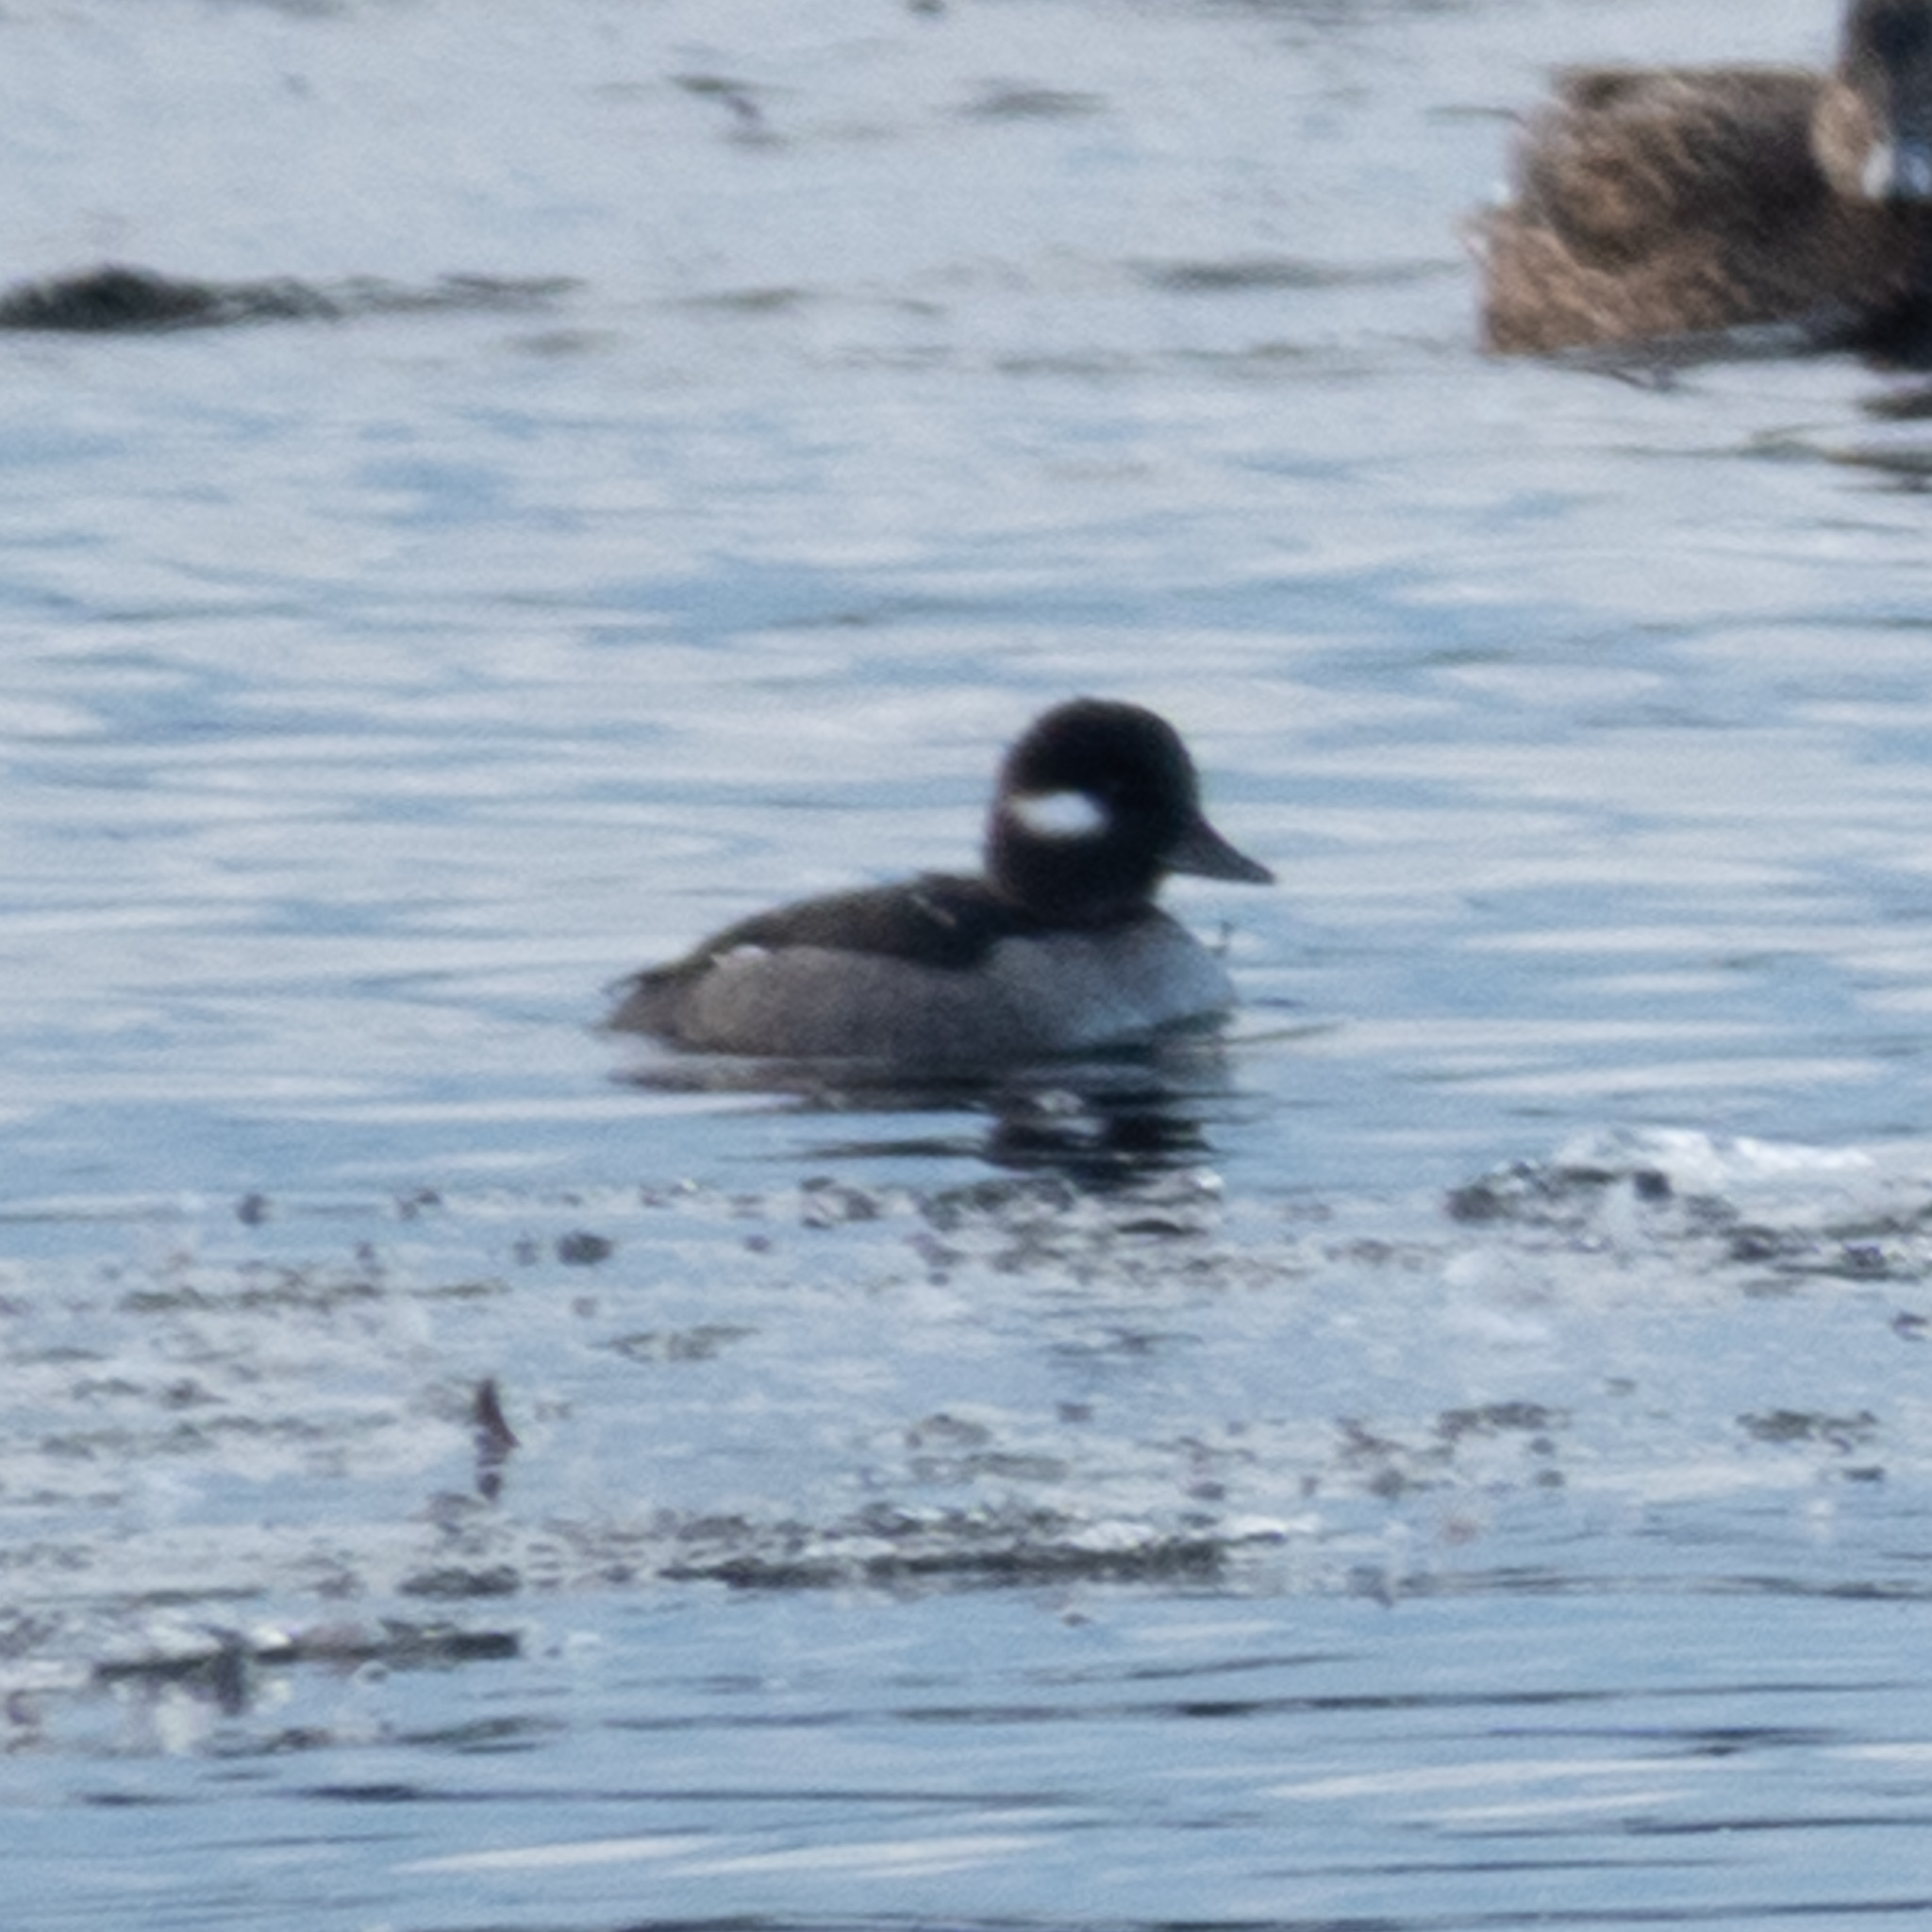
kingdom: Animalia
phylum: Chordata
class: Aves
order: Anseriformes
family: Anatidae
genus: Bucephala
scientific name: Bucephala albeola
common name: Bufflehead
